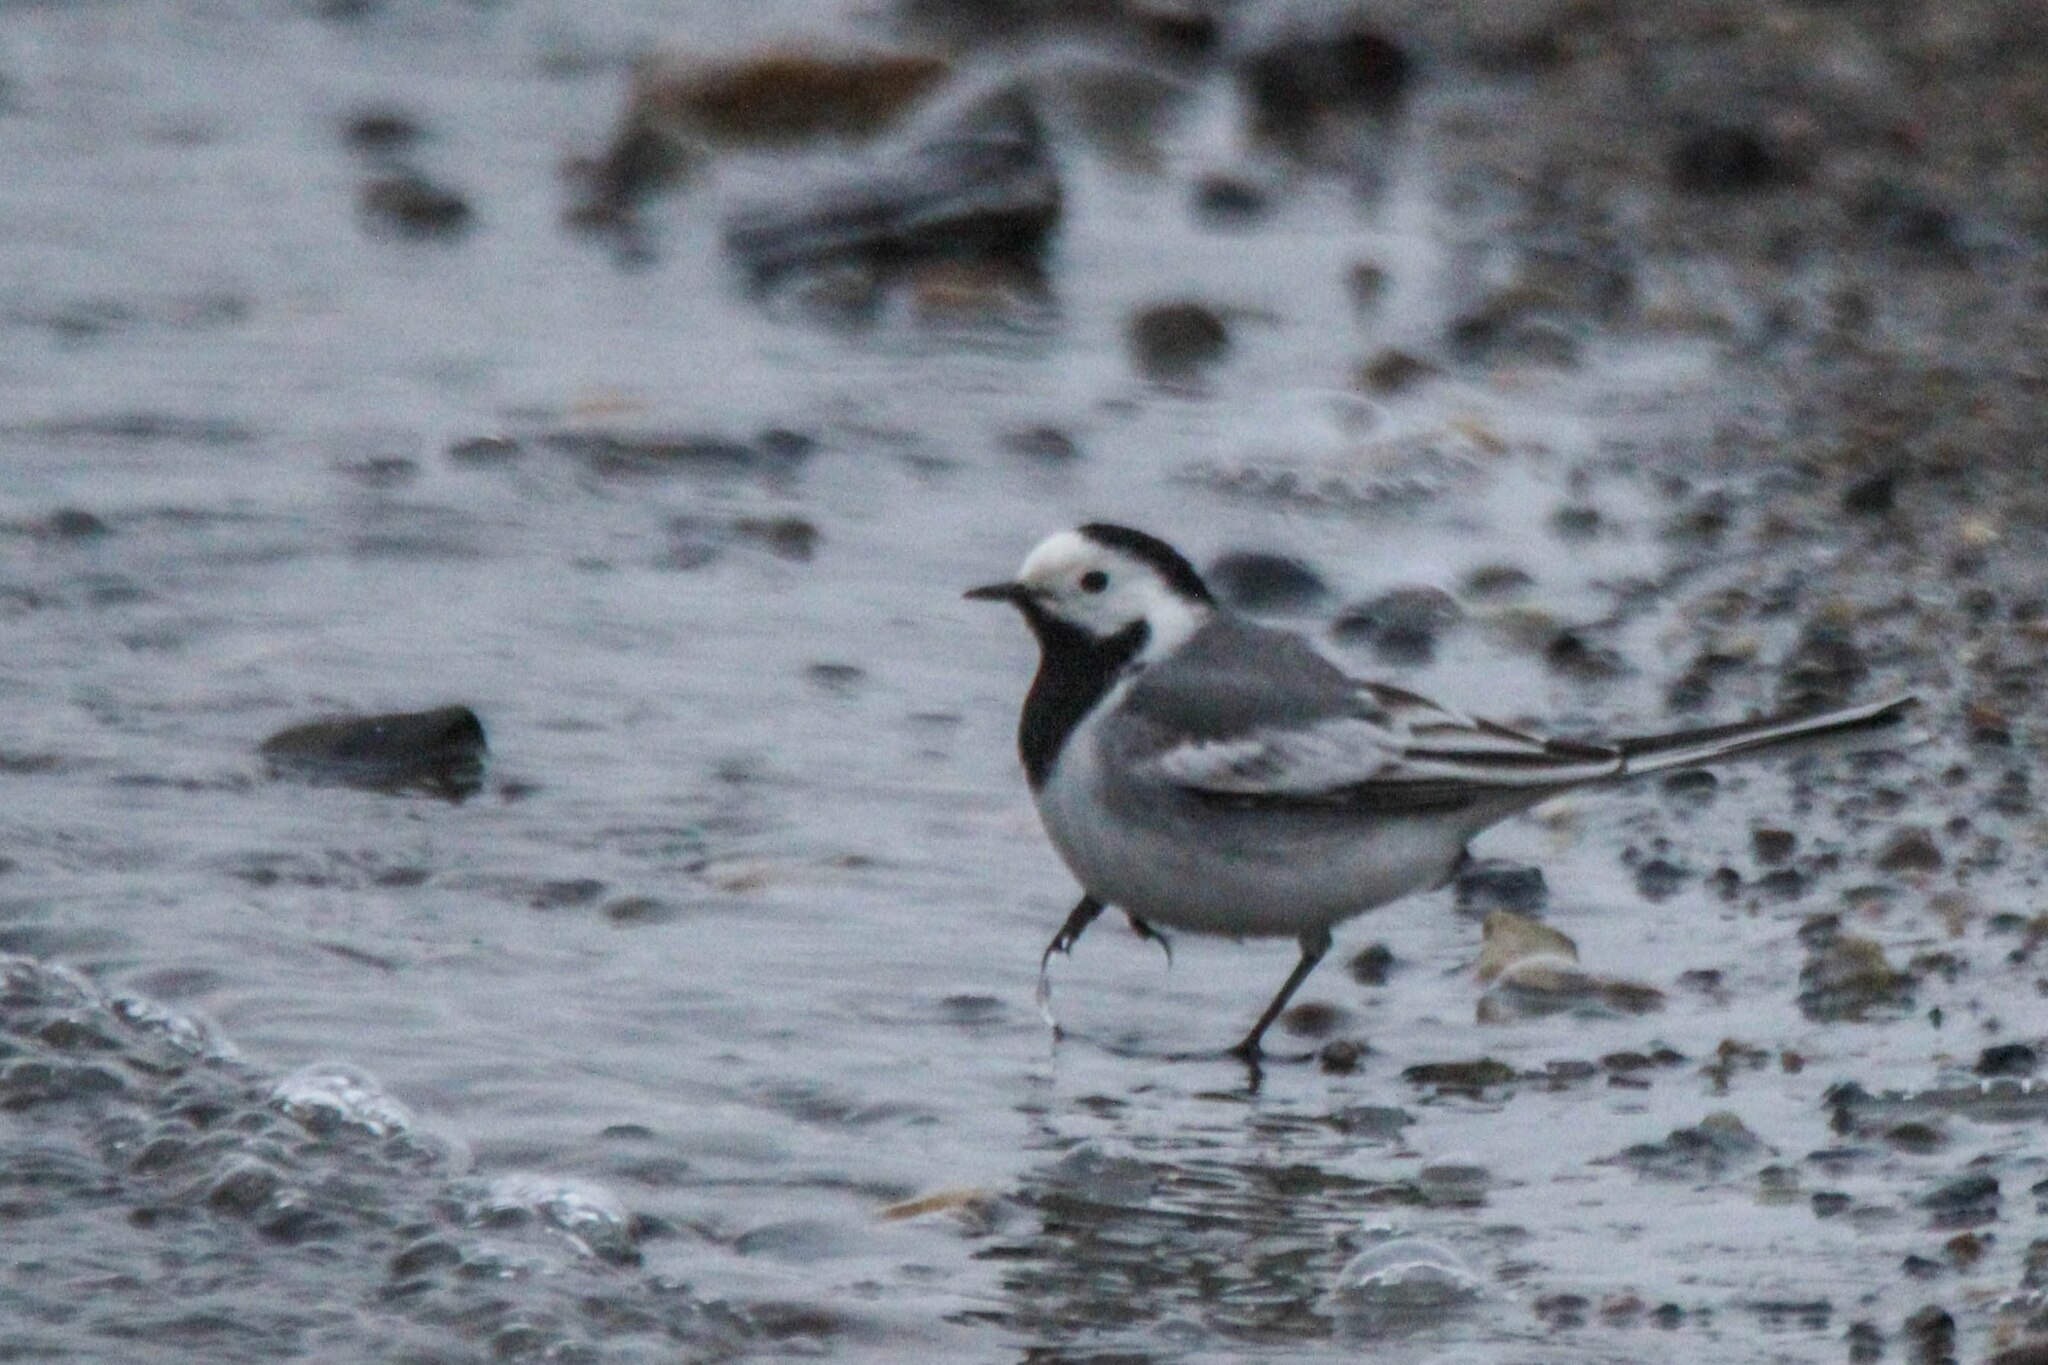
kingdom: Animalia
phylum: Chordata
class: Aves
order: Passeriformes
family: Motacillidae
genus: Motacilla
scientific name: Motacilla alba
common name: White wagtail
